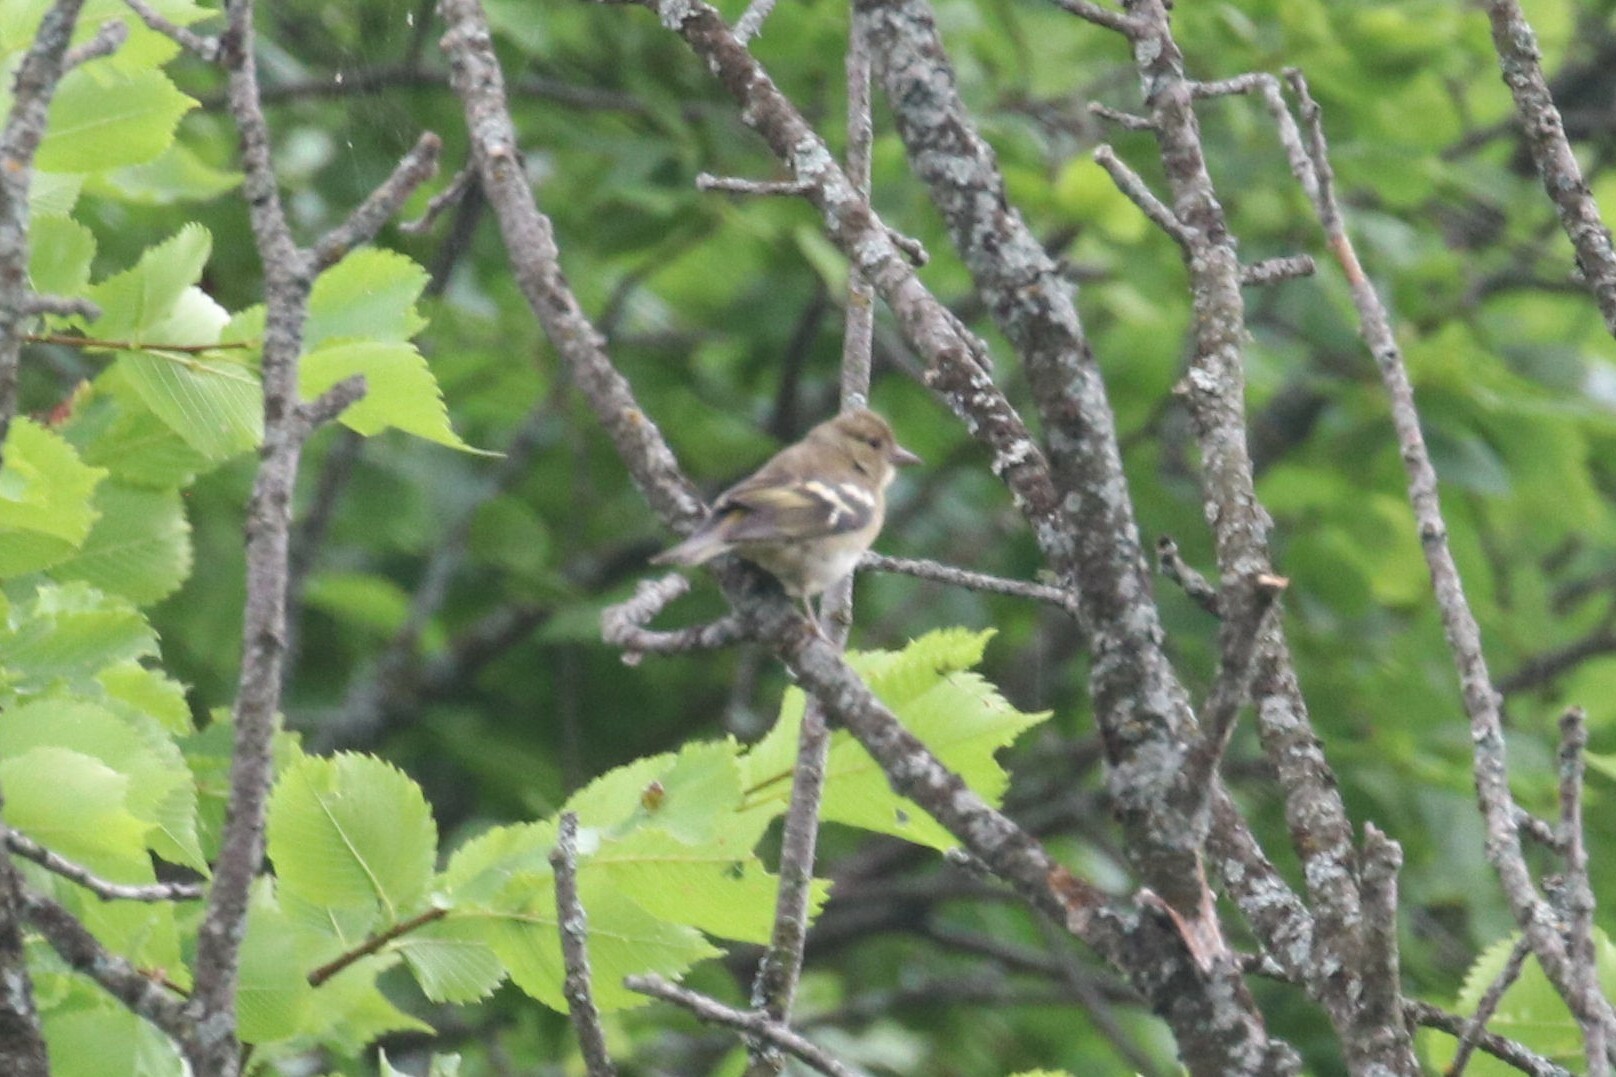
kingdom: Animalia
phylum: Chordata
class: Aves
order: Passeriformes
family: Fringillidae
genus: Fringilla
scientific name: Fringilla coelebs
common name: Common chaffinch
